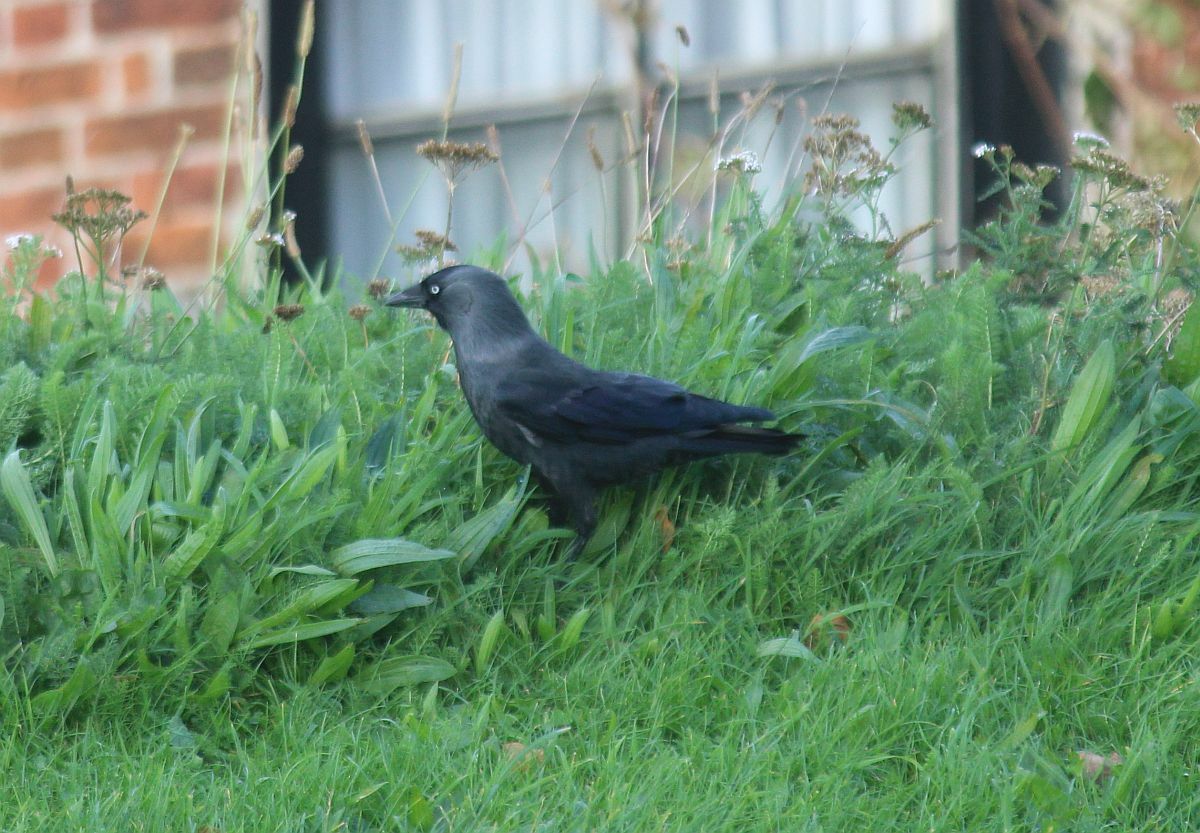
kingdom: Animalia
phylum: Chordata
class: Aves
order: Passeriformes
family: Corvidae
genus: Coloeus
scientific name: Coloeus monedula
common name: Western jackdaw
